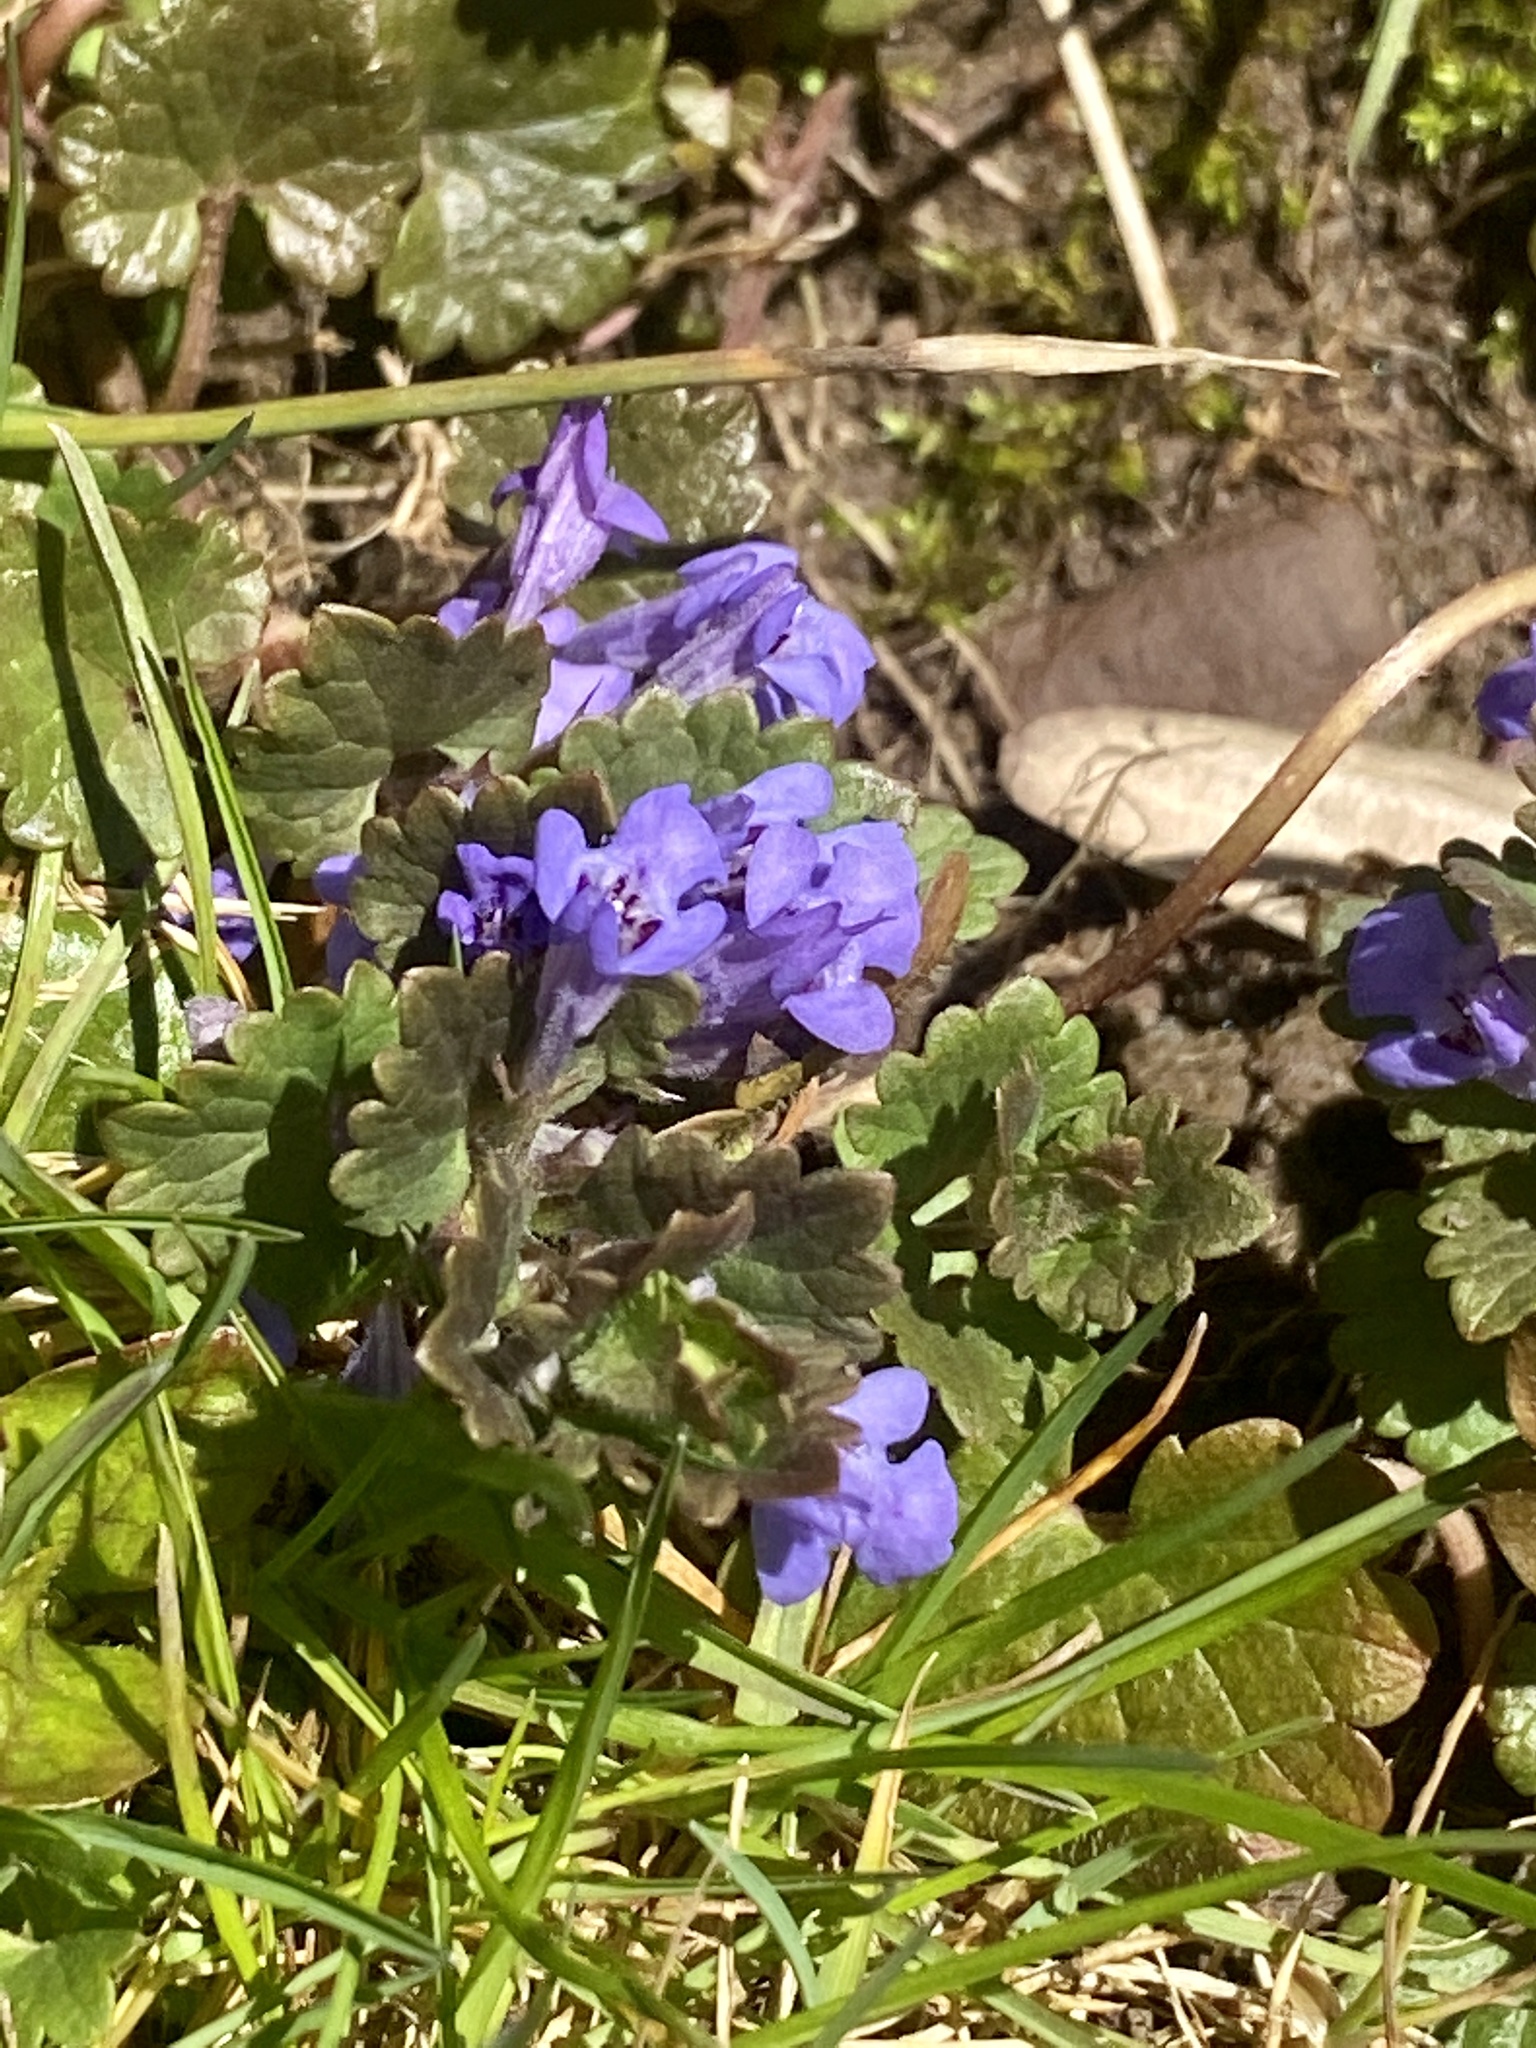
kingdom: Plantae
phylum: Tracheophyta
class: Magnoliopsida
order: Lamiales
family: Lamiaceae
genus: Glechoma
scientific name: Glechoma hederacea
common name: Ground ivy
